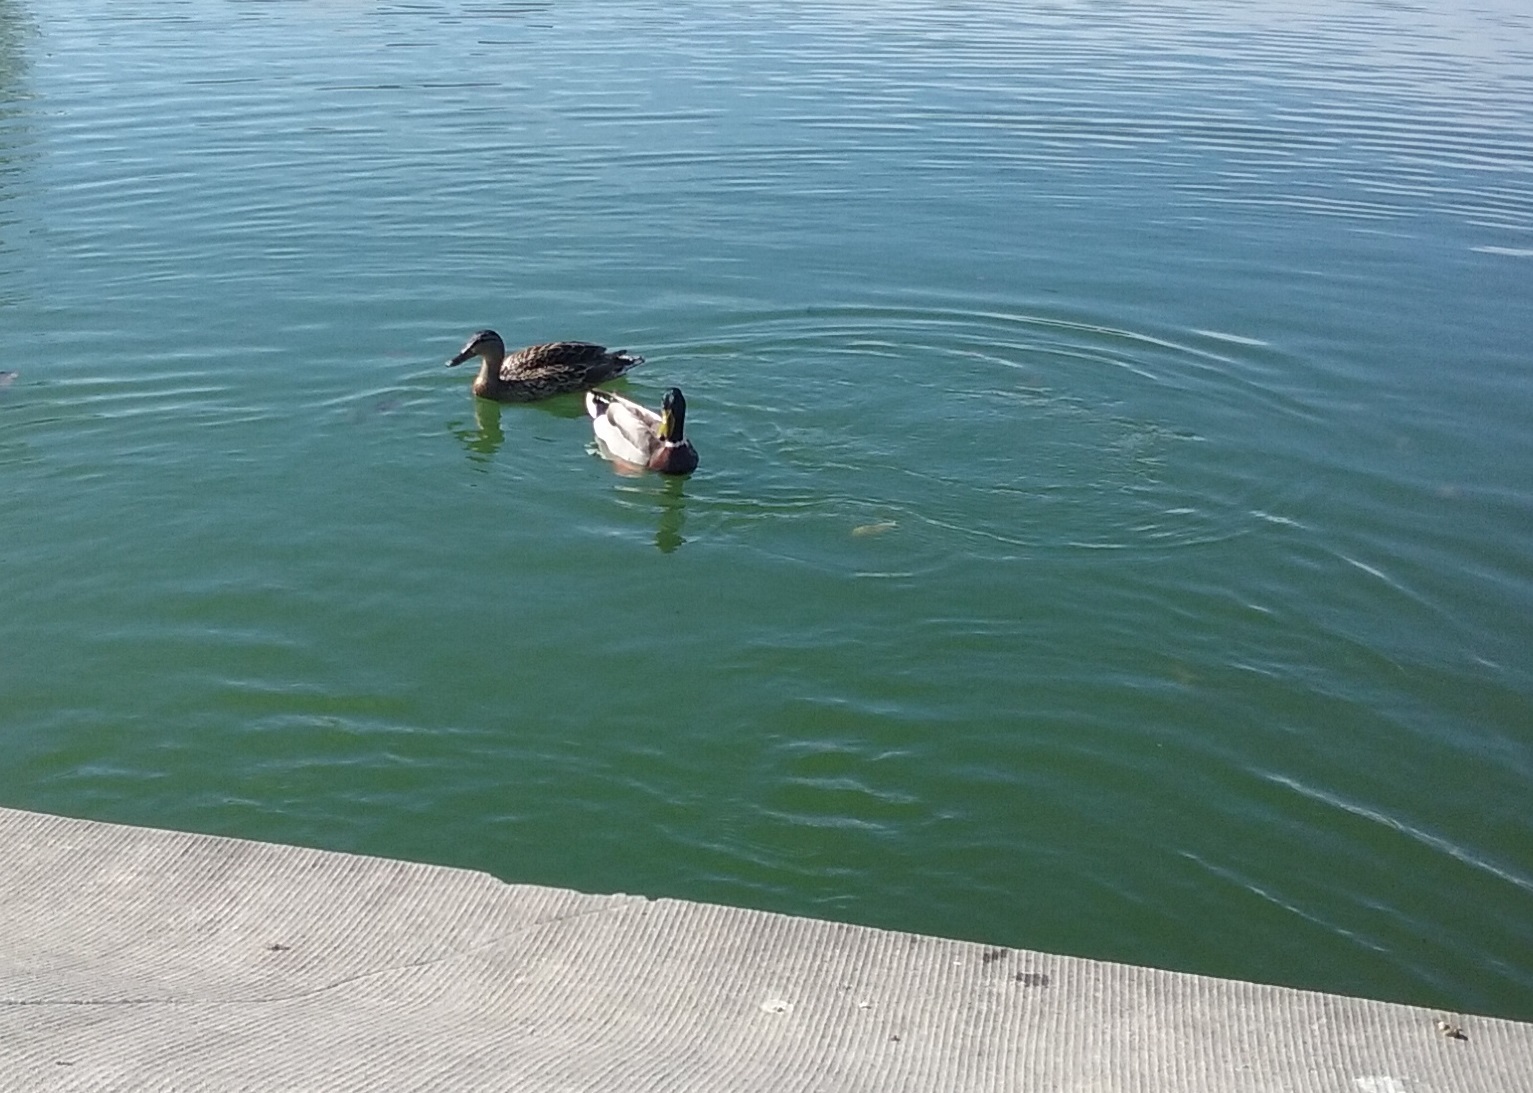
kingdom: Animalia
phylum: Chordata
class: Aves
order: Anseriformes
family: Anatidae
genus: Anas
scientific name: Anas platyrhynchos
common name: Mallard
